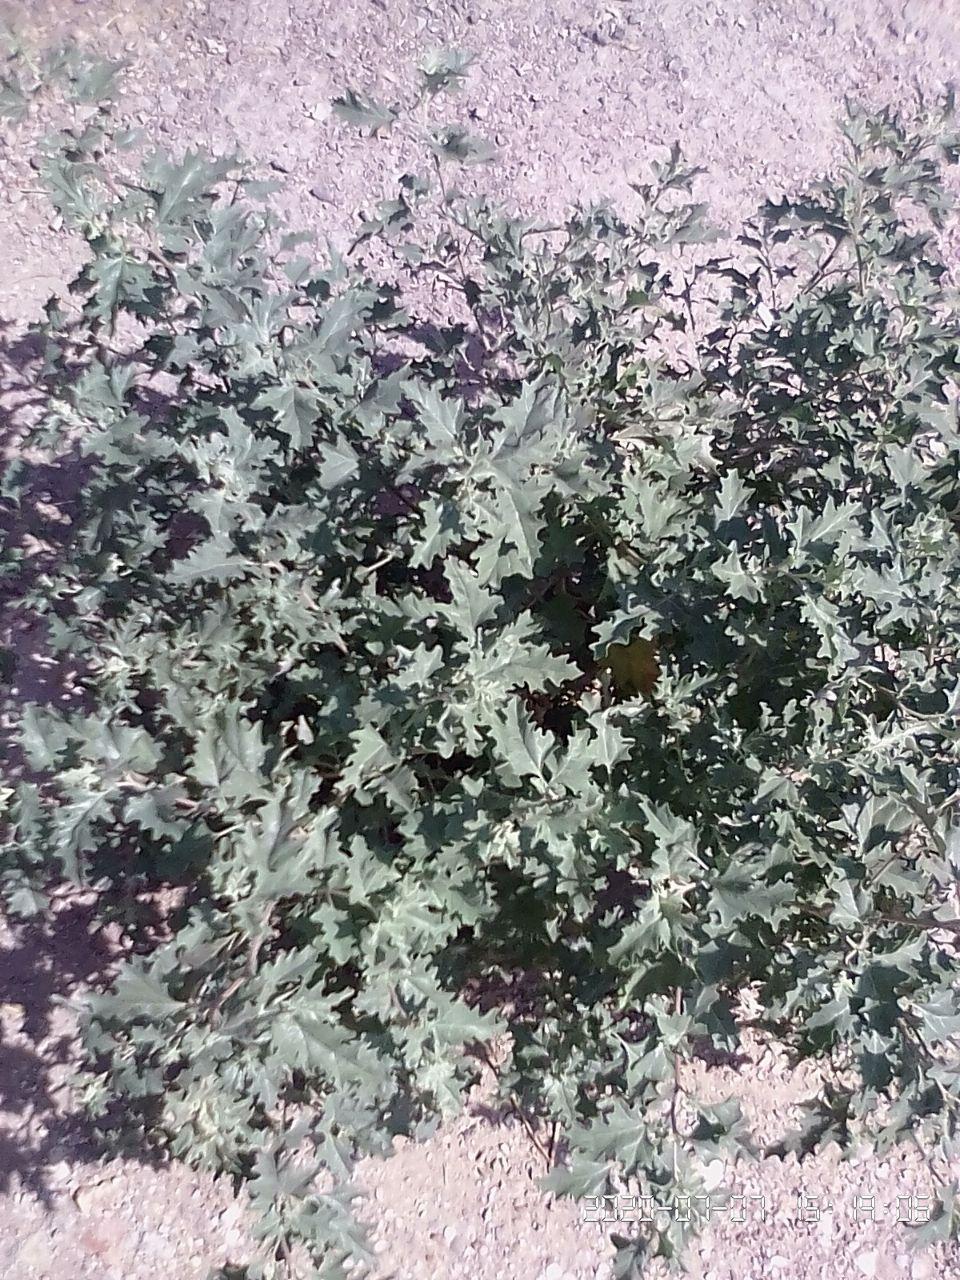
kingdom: Plantae
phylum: Tracheophyta
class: Magnoliopsida
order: Caryophyllales
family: Amaranthaceae
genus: Atriplex
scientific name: Atriplex tatarica
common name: Tatarian orache
